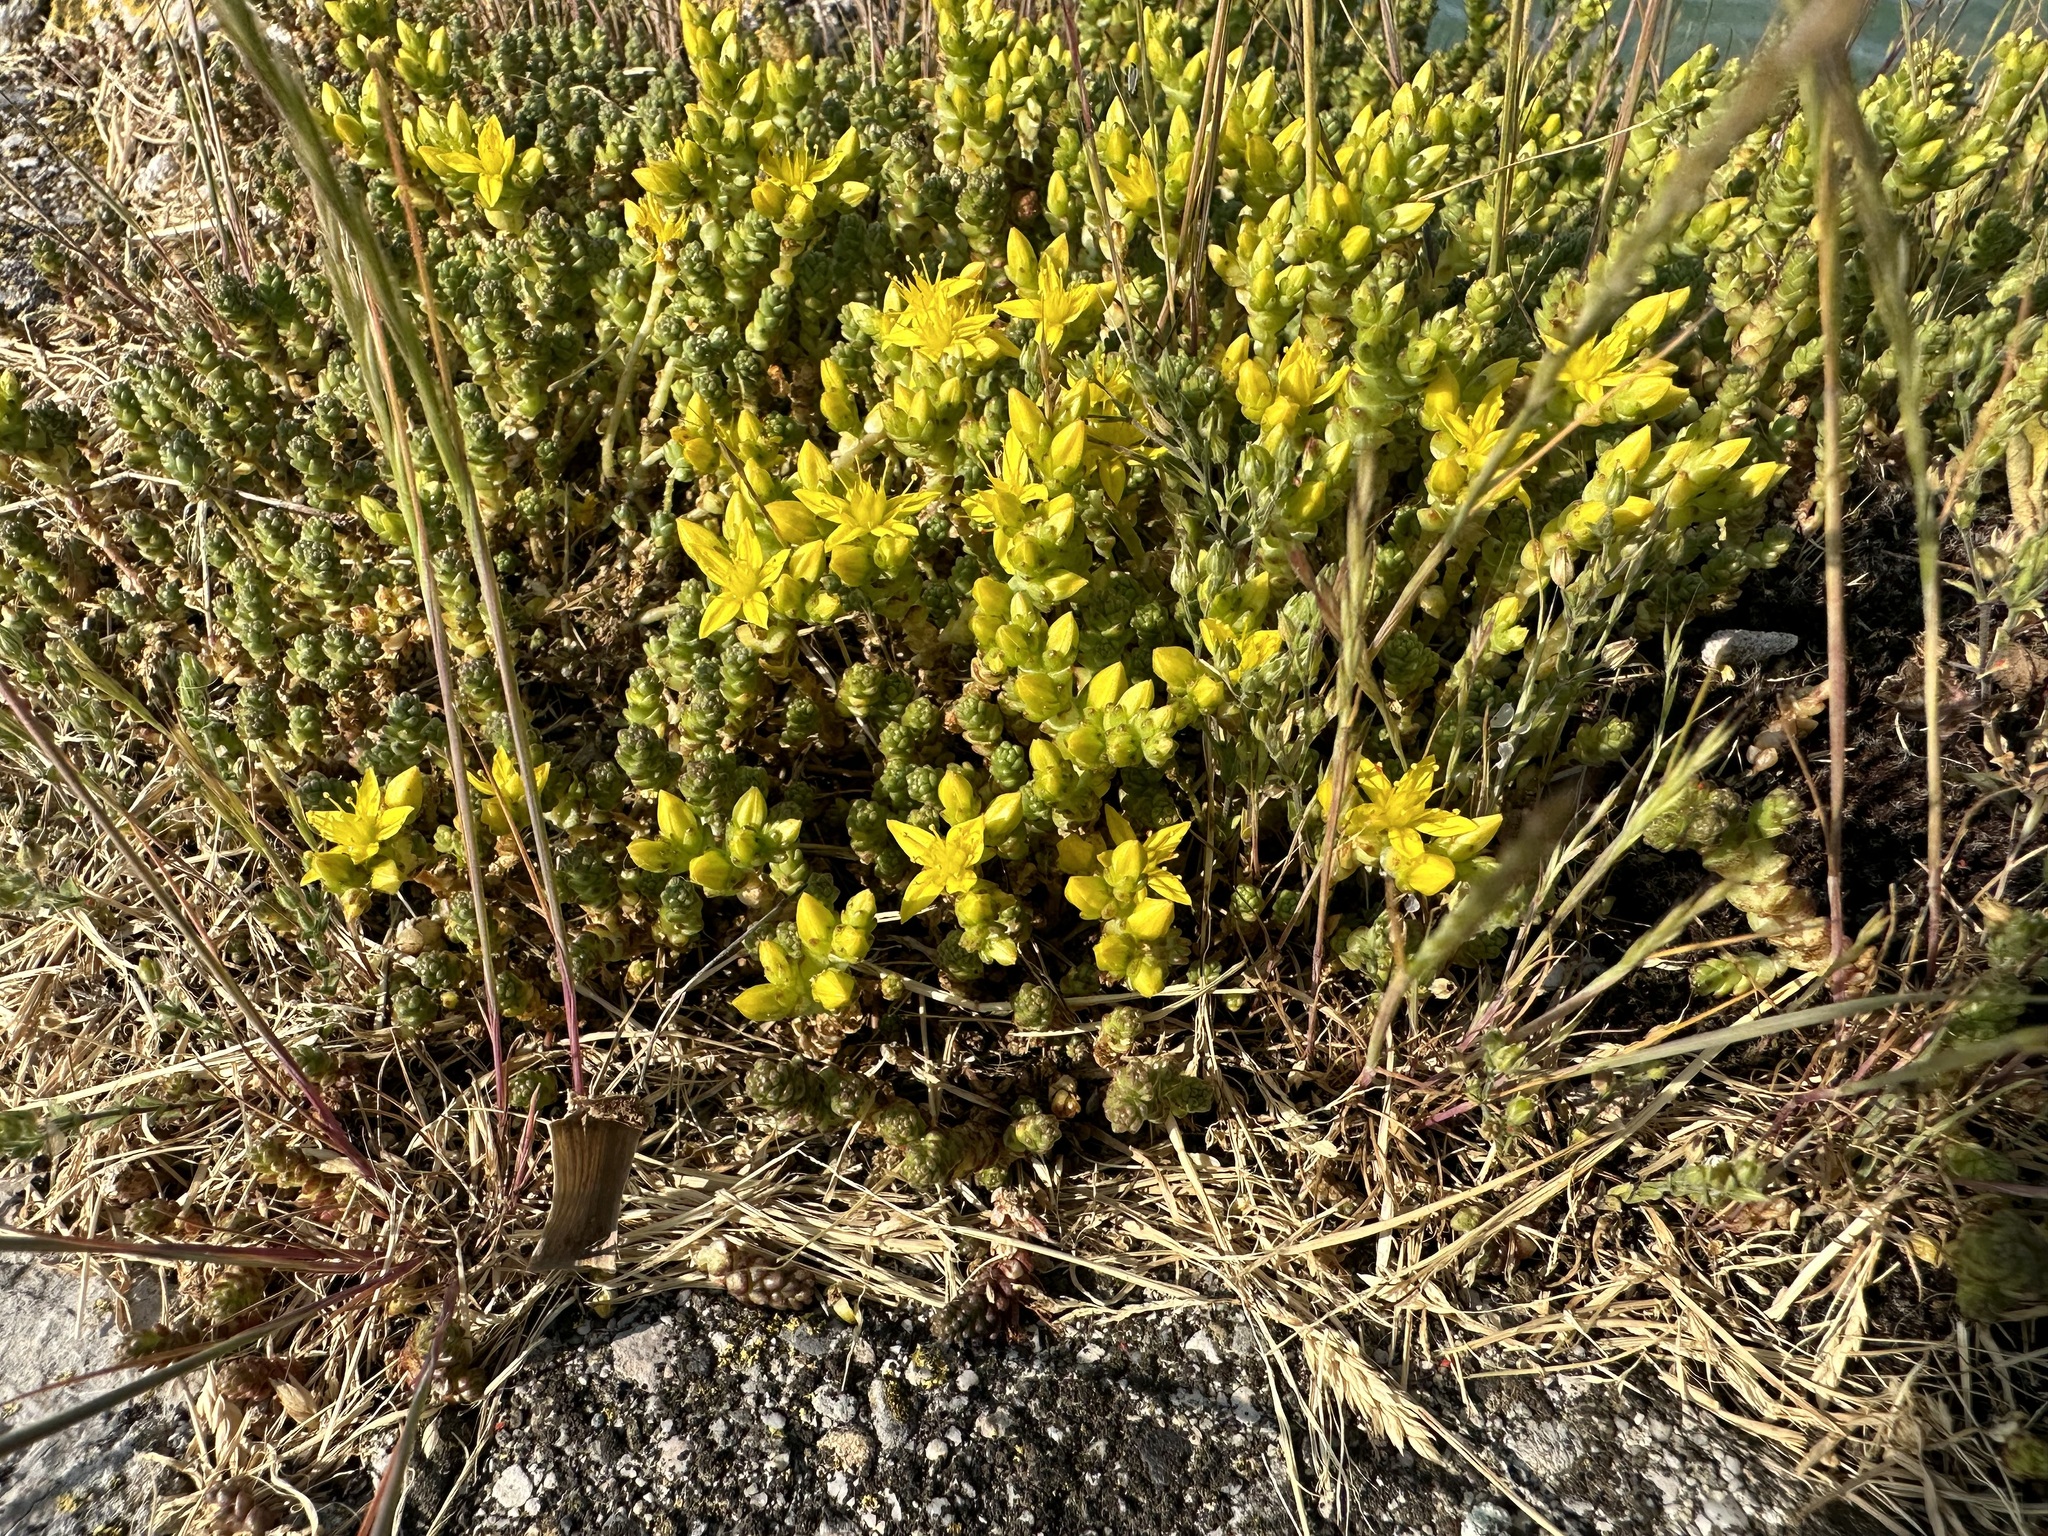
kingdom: Plantae
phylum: Tracheophyta
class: Magnoliopsida
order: Saxifragales
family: Crassulaceae
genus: Sedum
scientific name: Sedum acre
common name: Biting stonecrop
